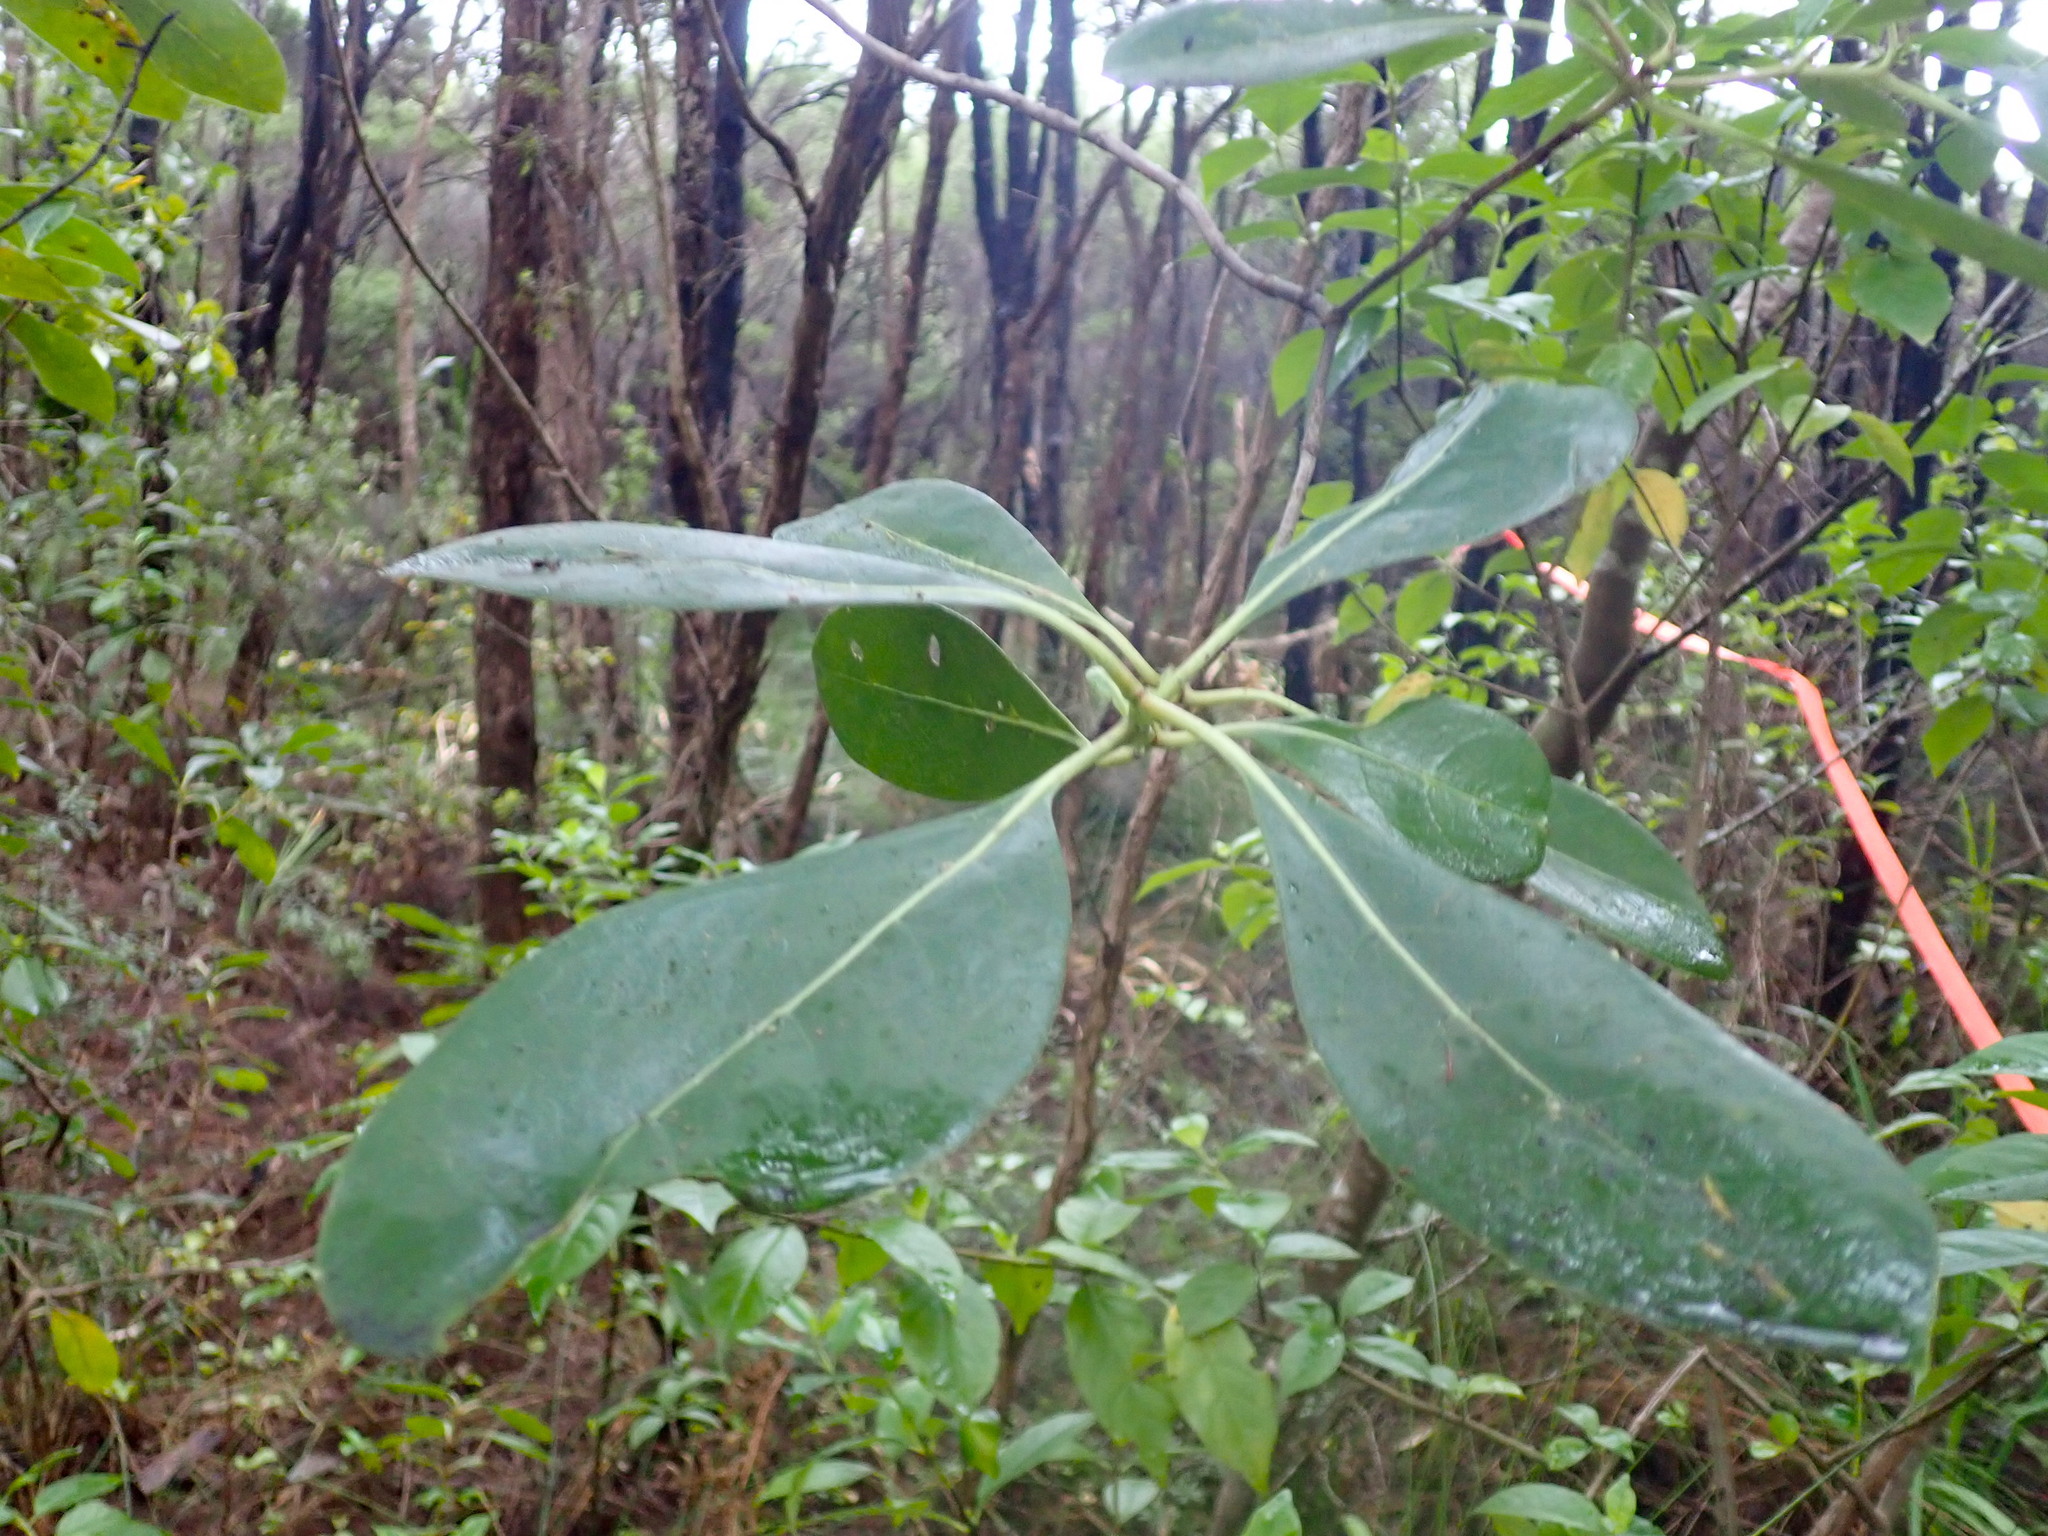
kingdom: Plantae
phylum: Tracheophyta
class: Magnoliopsida
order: Gentianales
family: Rubiaceae
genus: Coprosma
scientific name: Coprosma lucida
